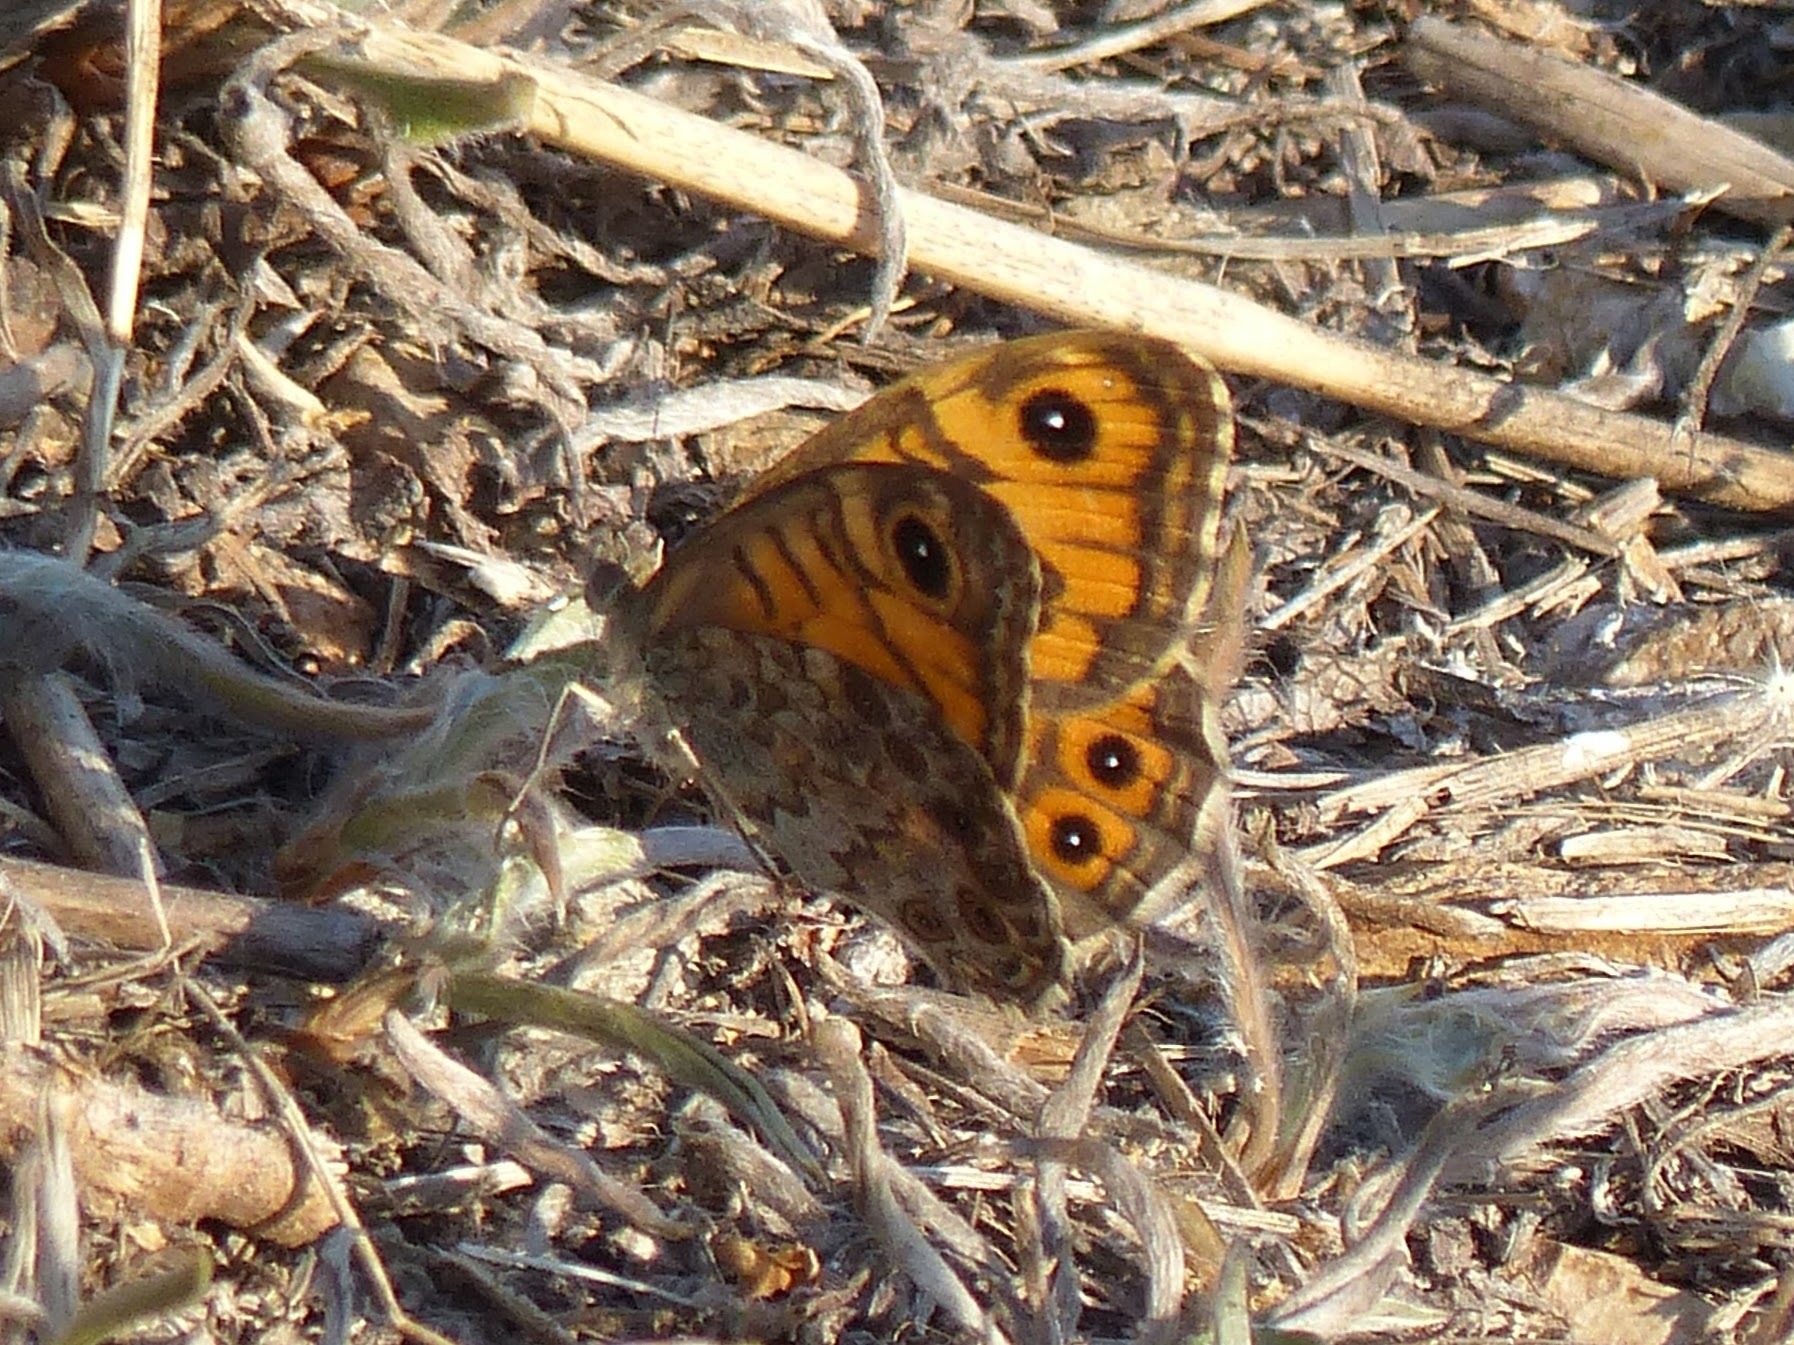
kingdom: Animalia
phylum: Arthropoda
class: Insecta
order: Lepidoptera
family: Nymphalidae
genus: Pararge
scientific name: Pararge Lasiommata megera
